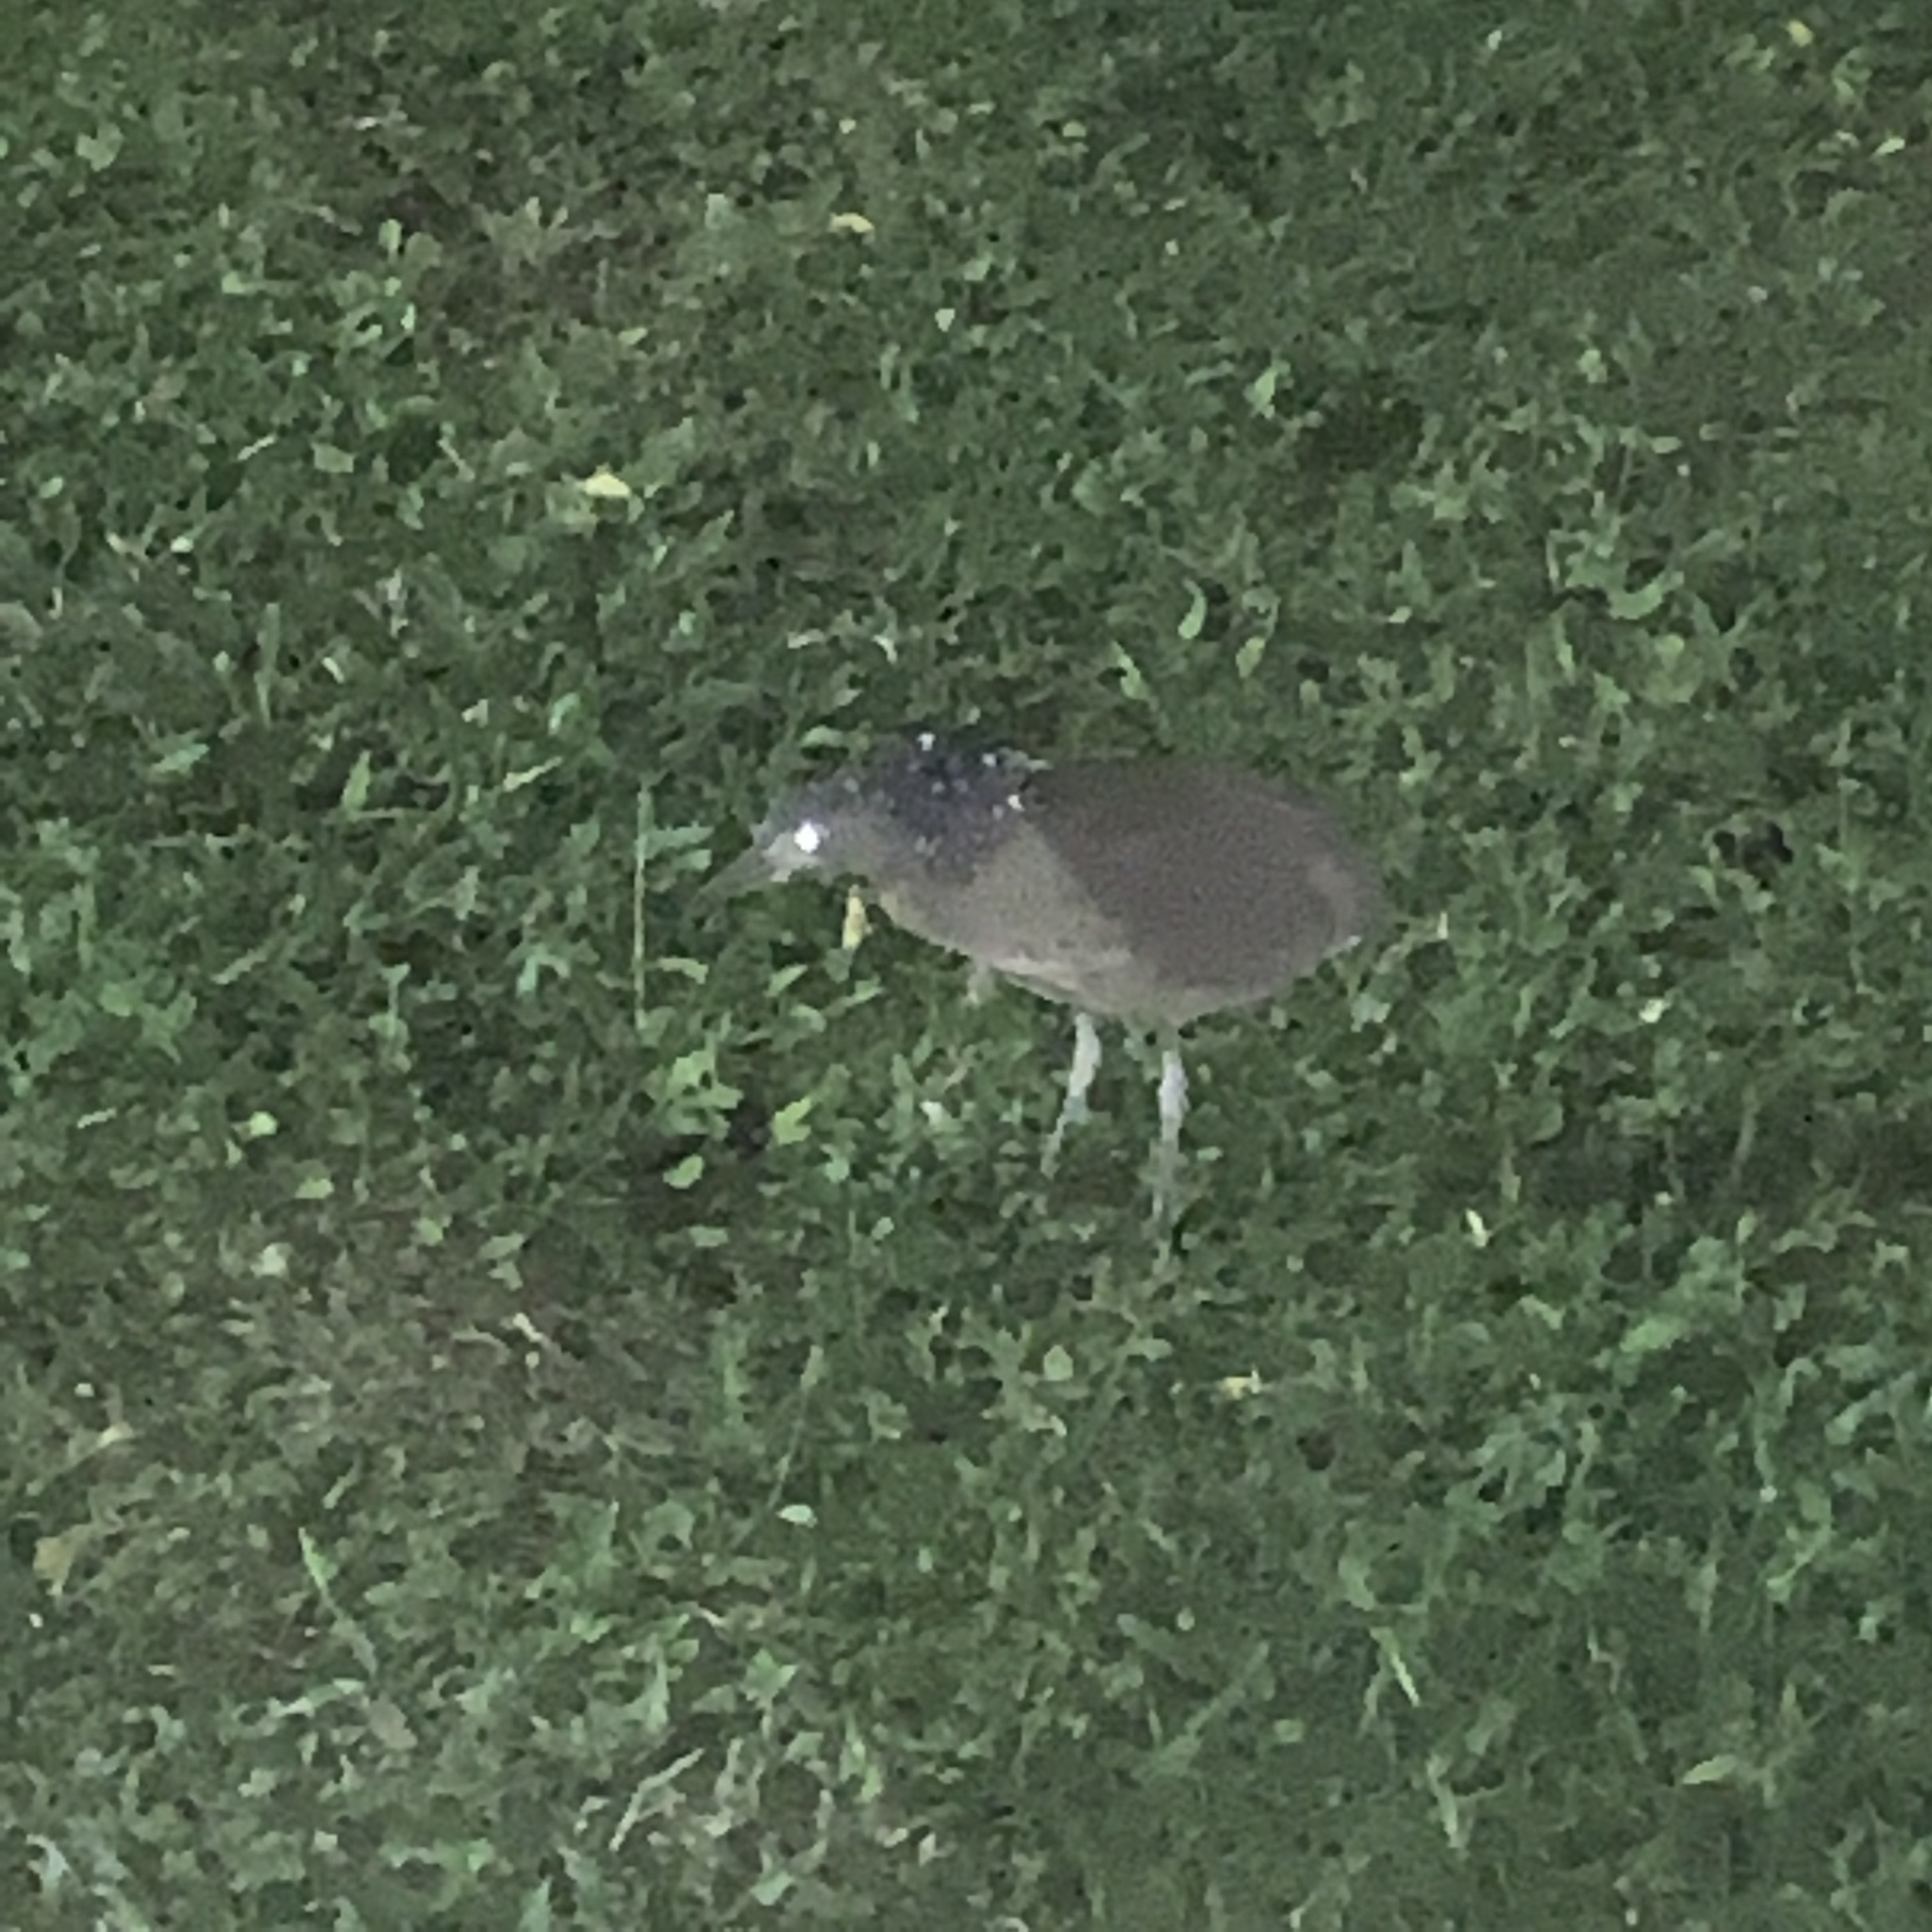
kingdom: Animalia
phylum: Chordata
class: Aves
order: Pelecaniformes
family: Ardeidae
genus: Gorsachius
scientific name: Gorsachius melanolophus
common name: Malayan night heron
